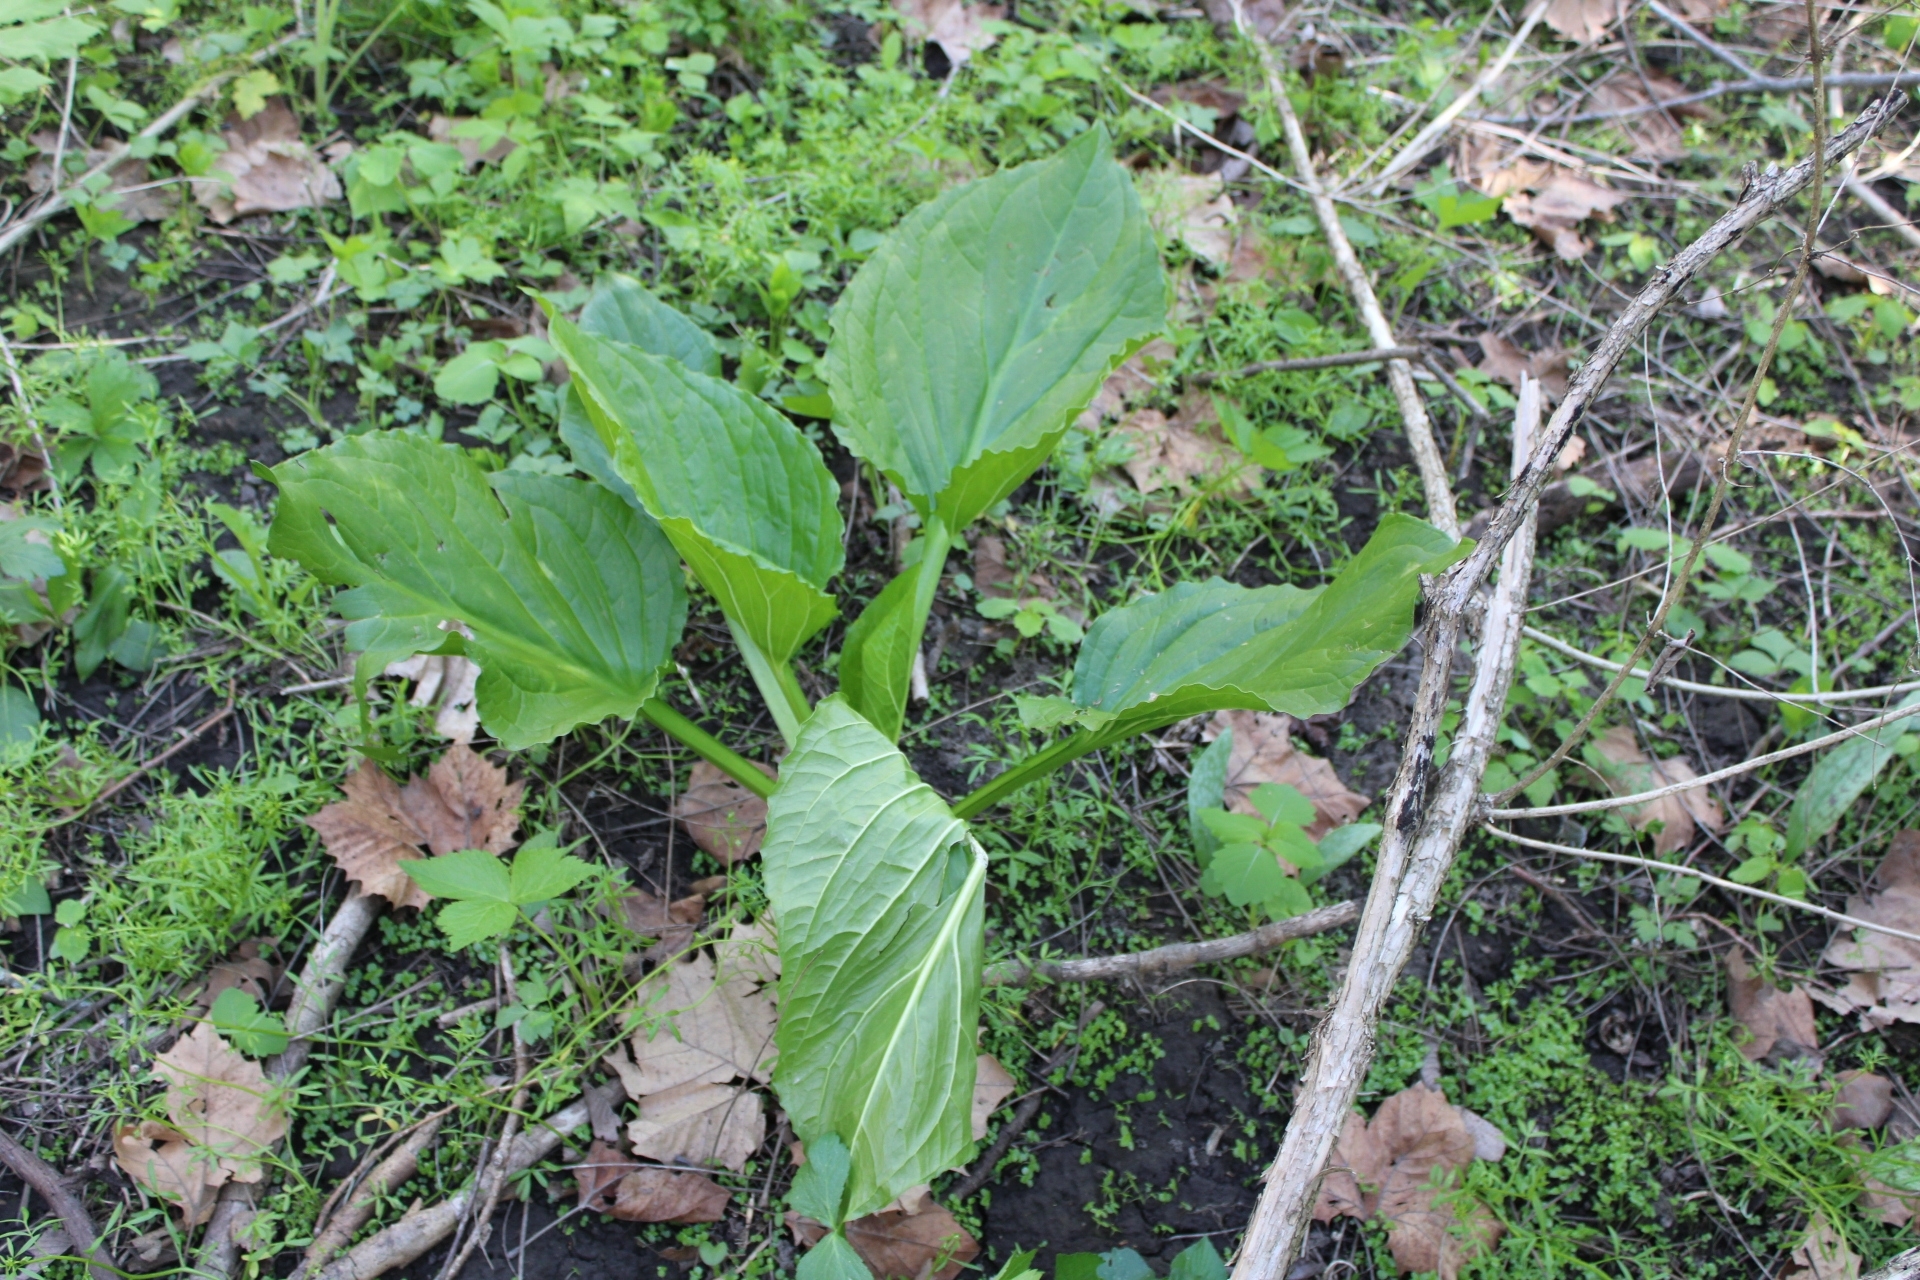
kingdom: Plantae
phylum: Tracheophyta
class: Liliopsida
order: Alismatales
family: Araceae
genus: Symplocarpus
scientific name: Symplocarpus foetidus
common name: Eastern skunk cabbage
